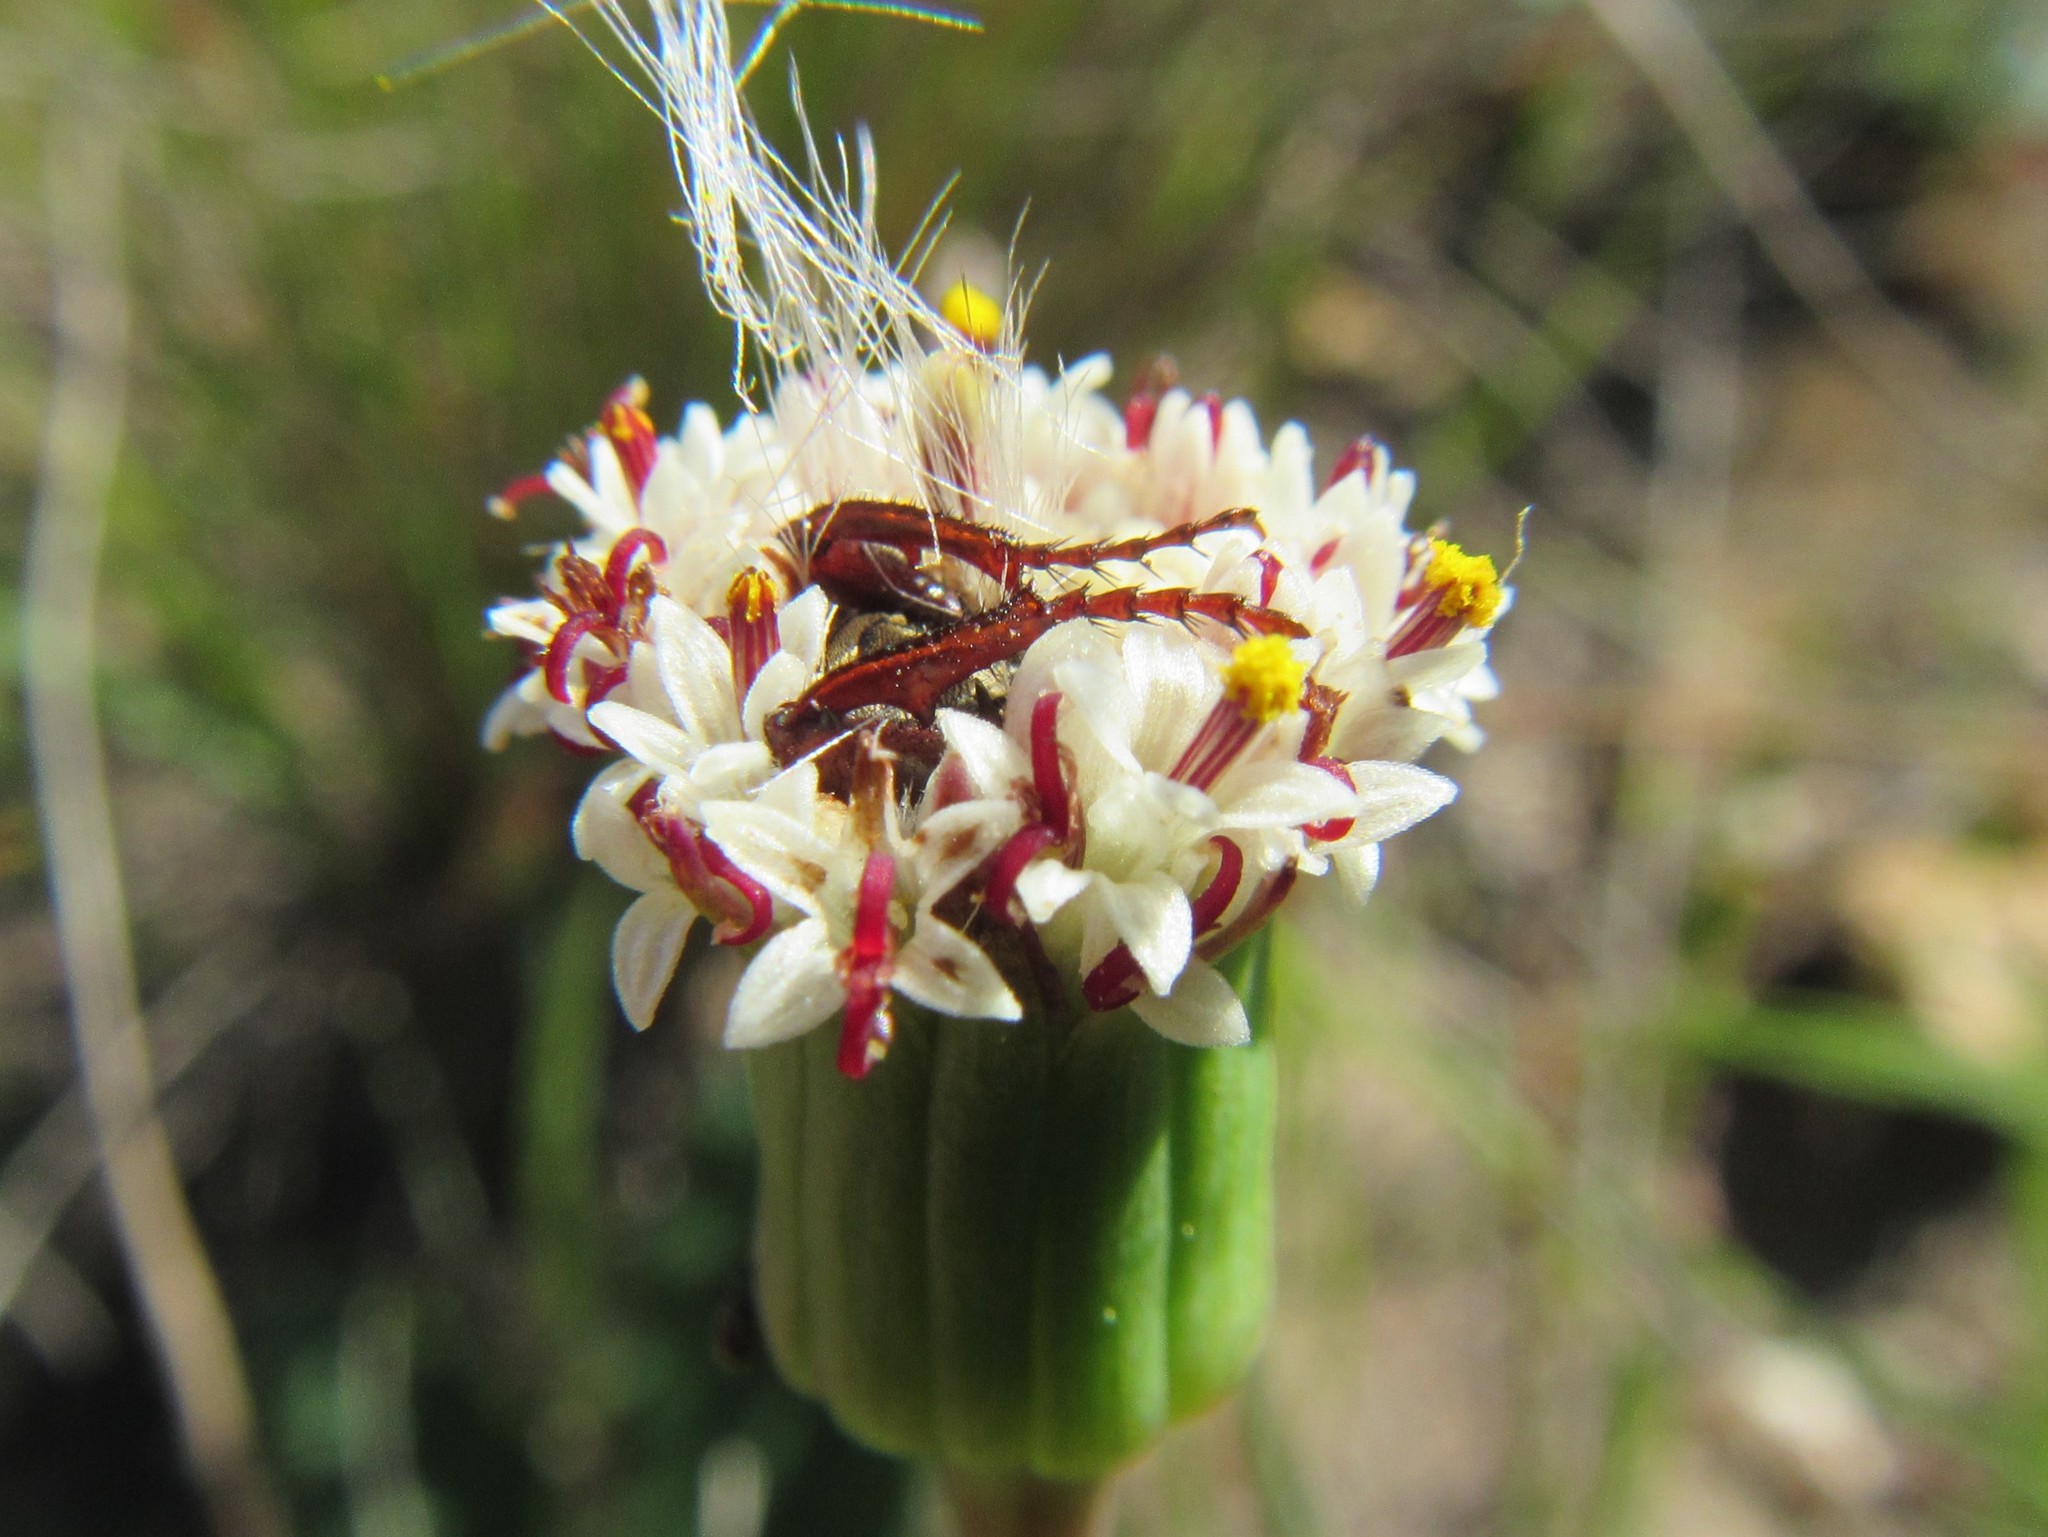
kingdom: Plantae
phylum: Tracheophyta
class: Magnoliopsida
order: Asterales
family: Asteraceae
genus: Bolandia
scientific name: Bolandia pinnatifida
